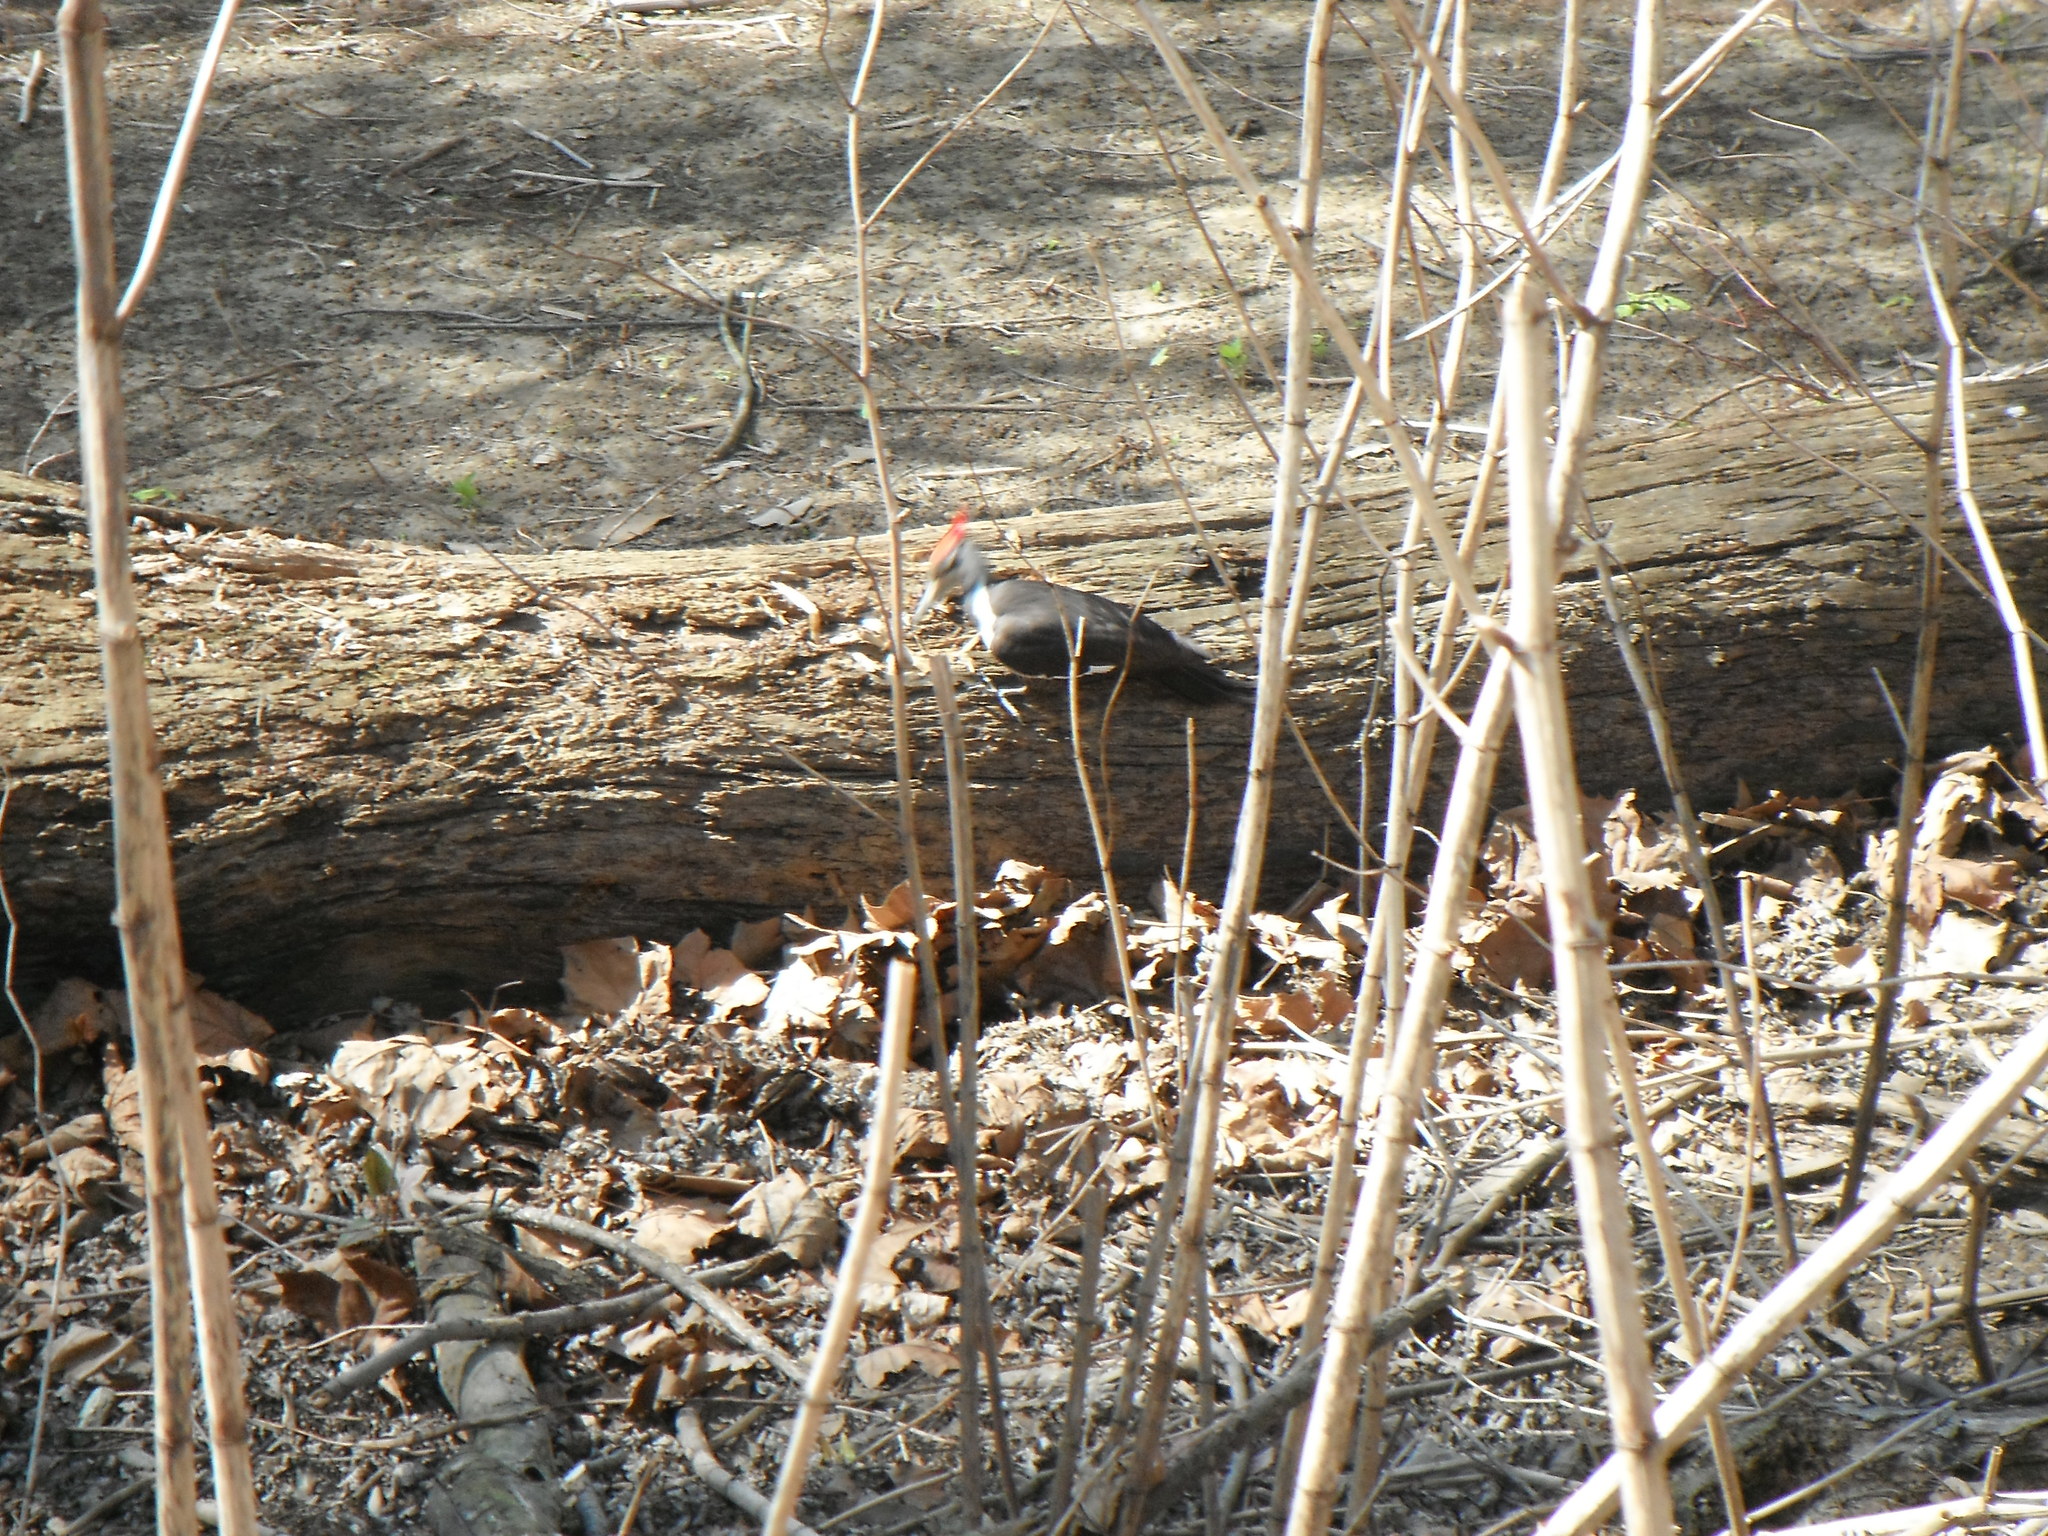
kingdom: Animalia
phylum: Chordata
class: Aves
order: Piciformes
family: Picidae
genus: Dryocopus
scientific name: Dryocopus pileatus
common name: Pileated woodpecker
